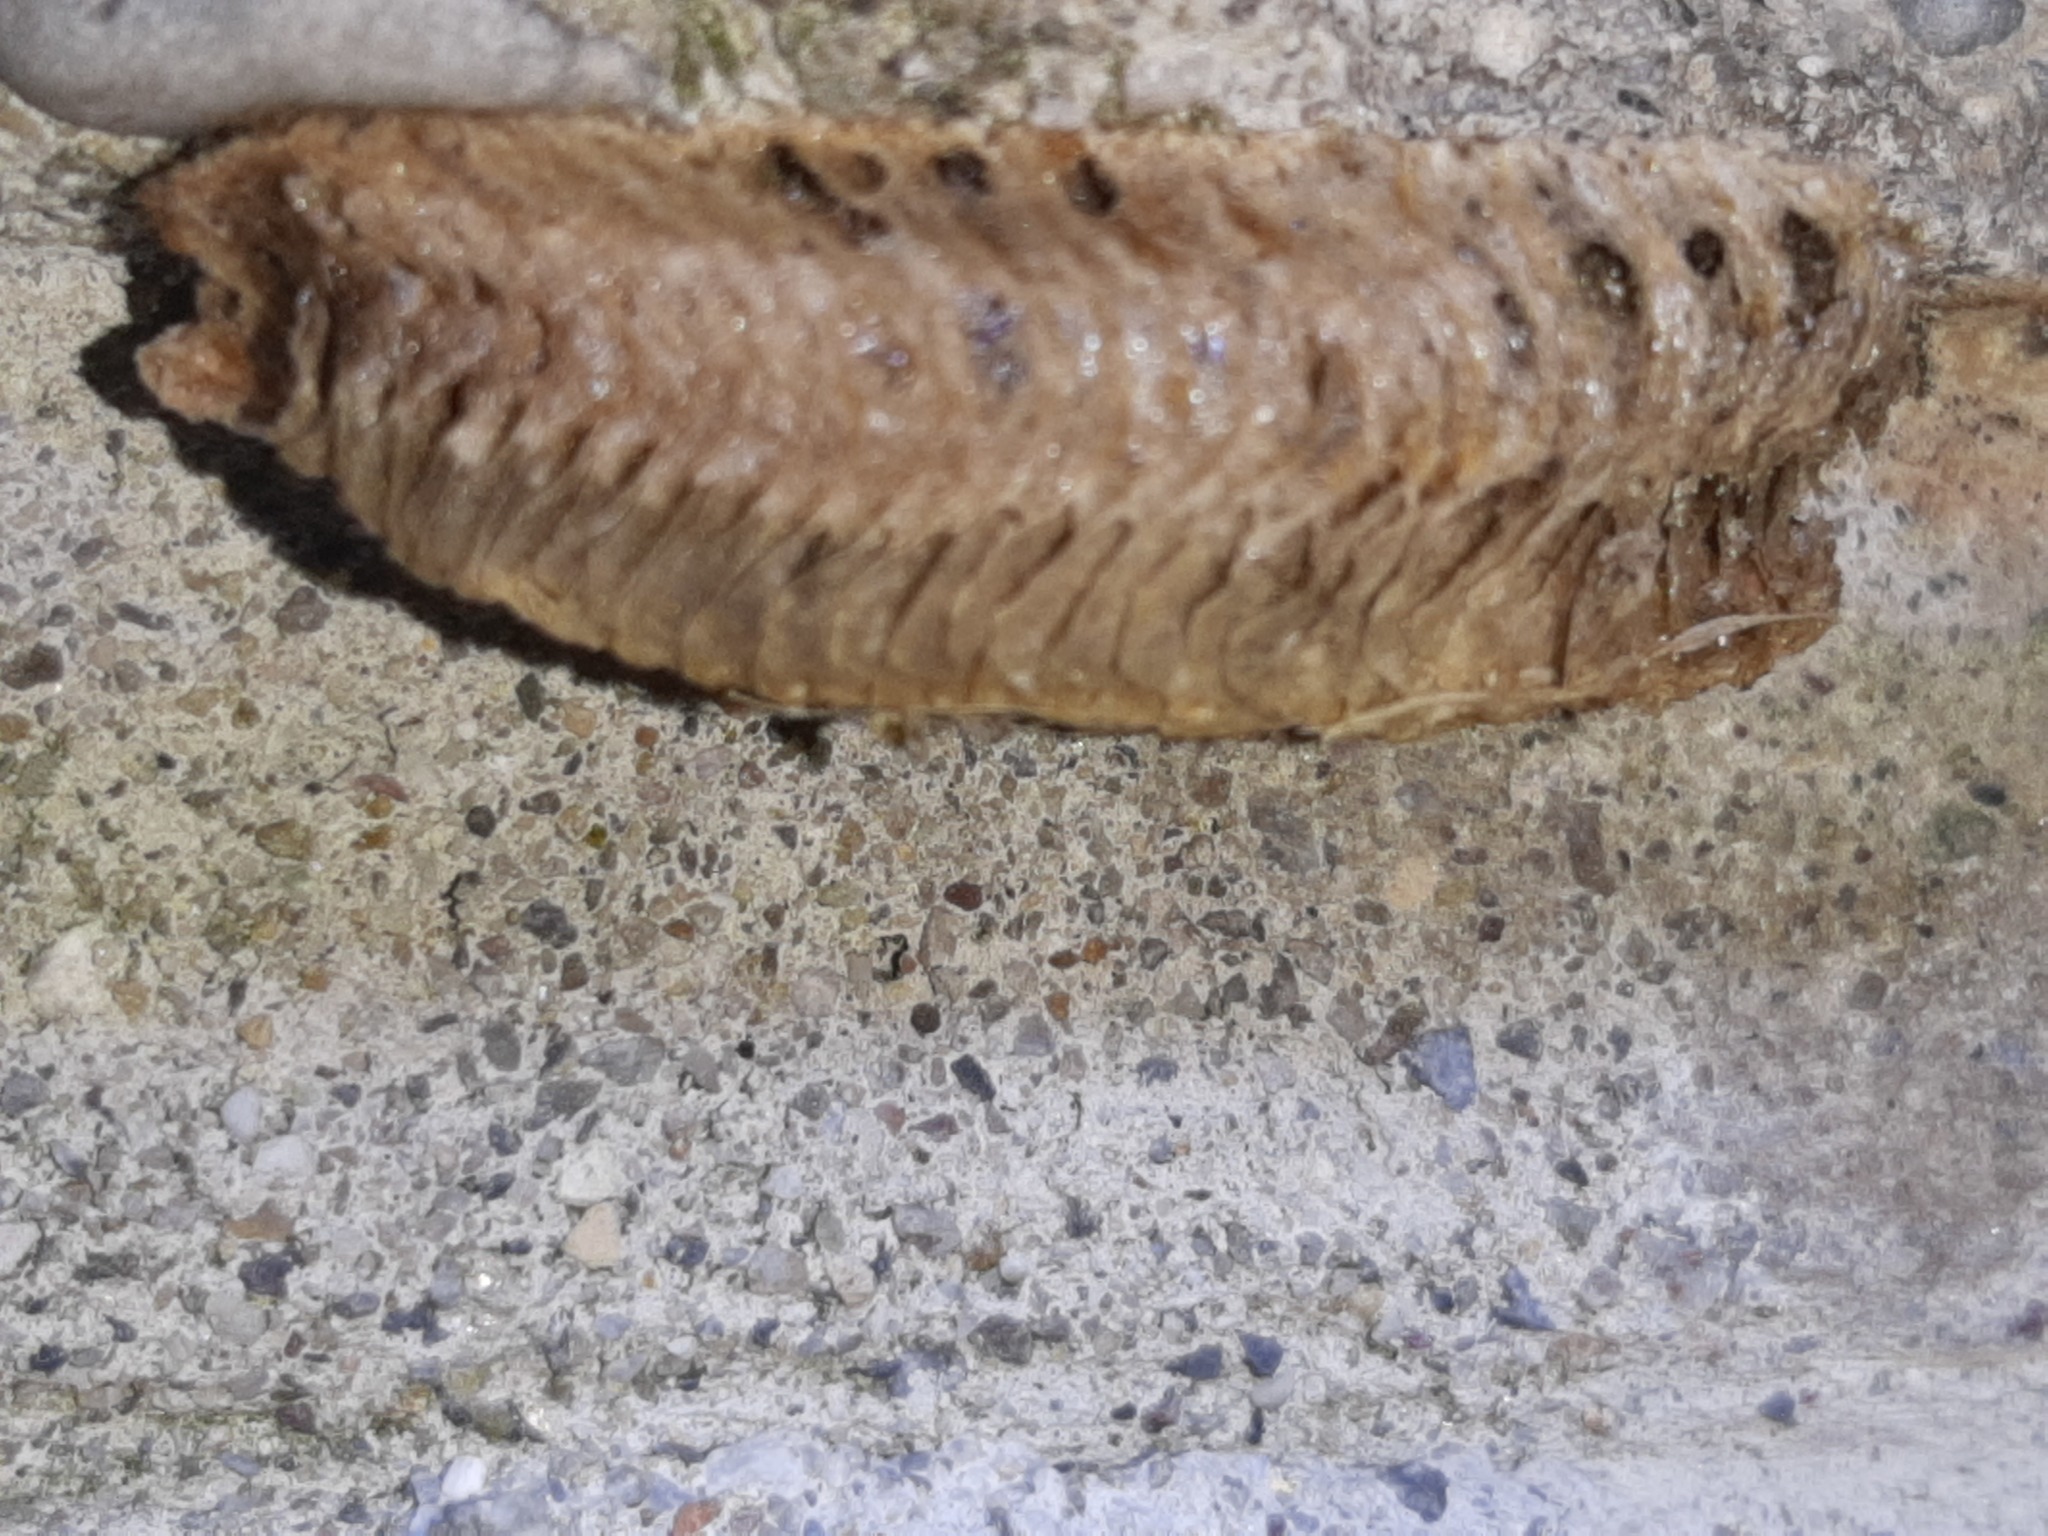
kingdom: Animalia
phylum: Arthropoda
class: Insecta
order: Mantodea
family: Mantidae
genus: Mantis
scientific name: Mantis religiosa
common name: Praying mantis
